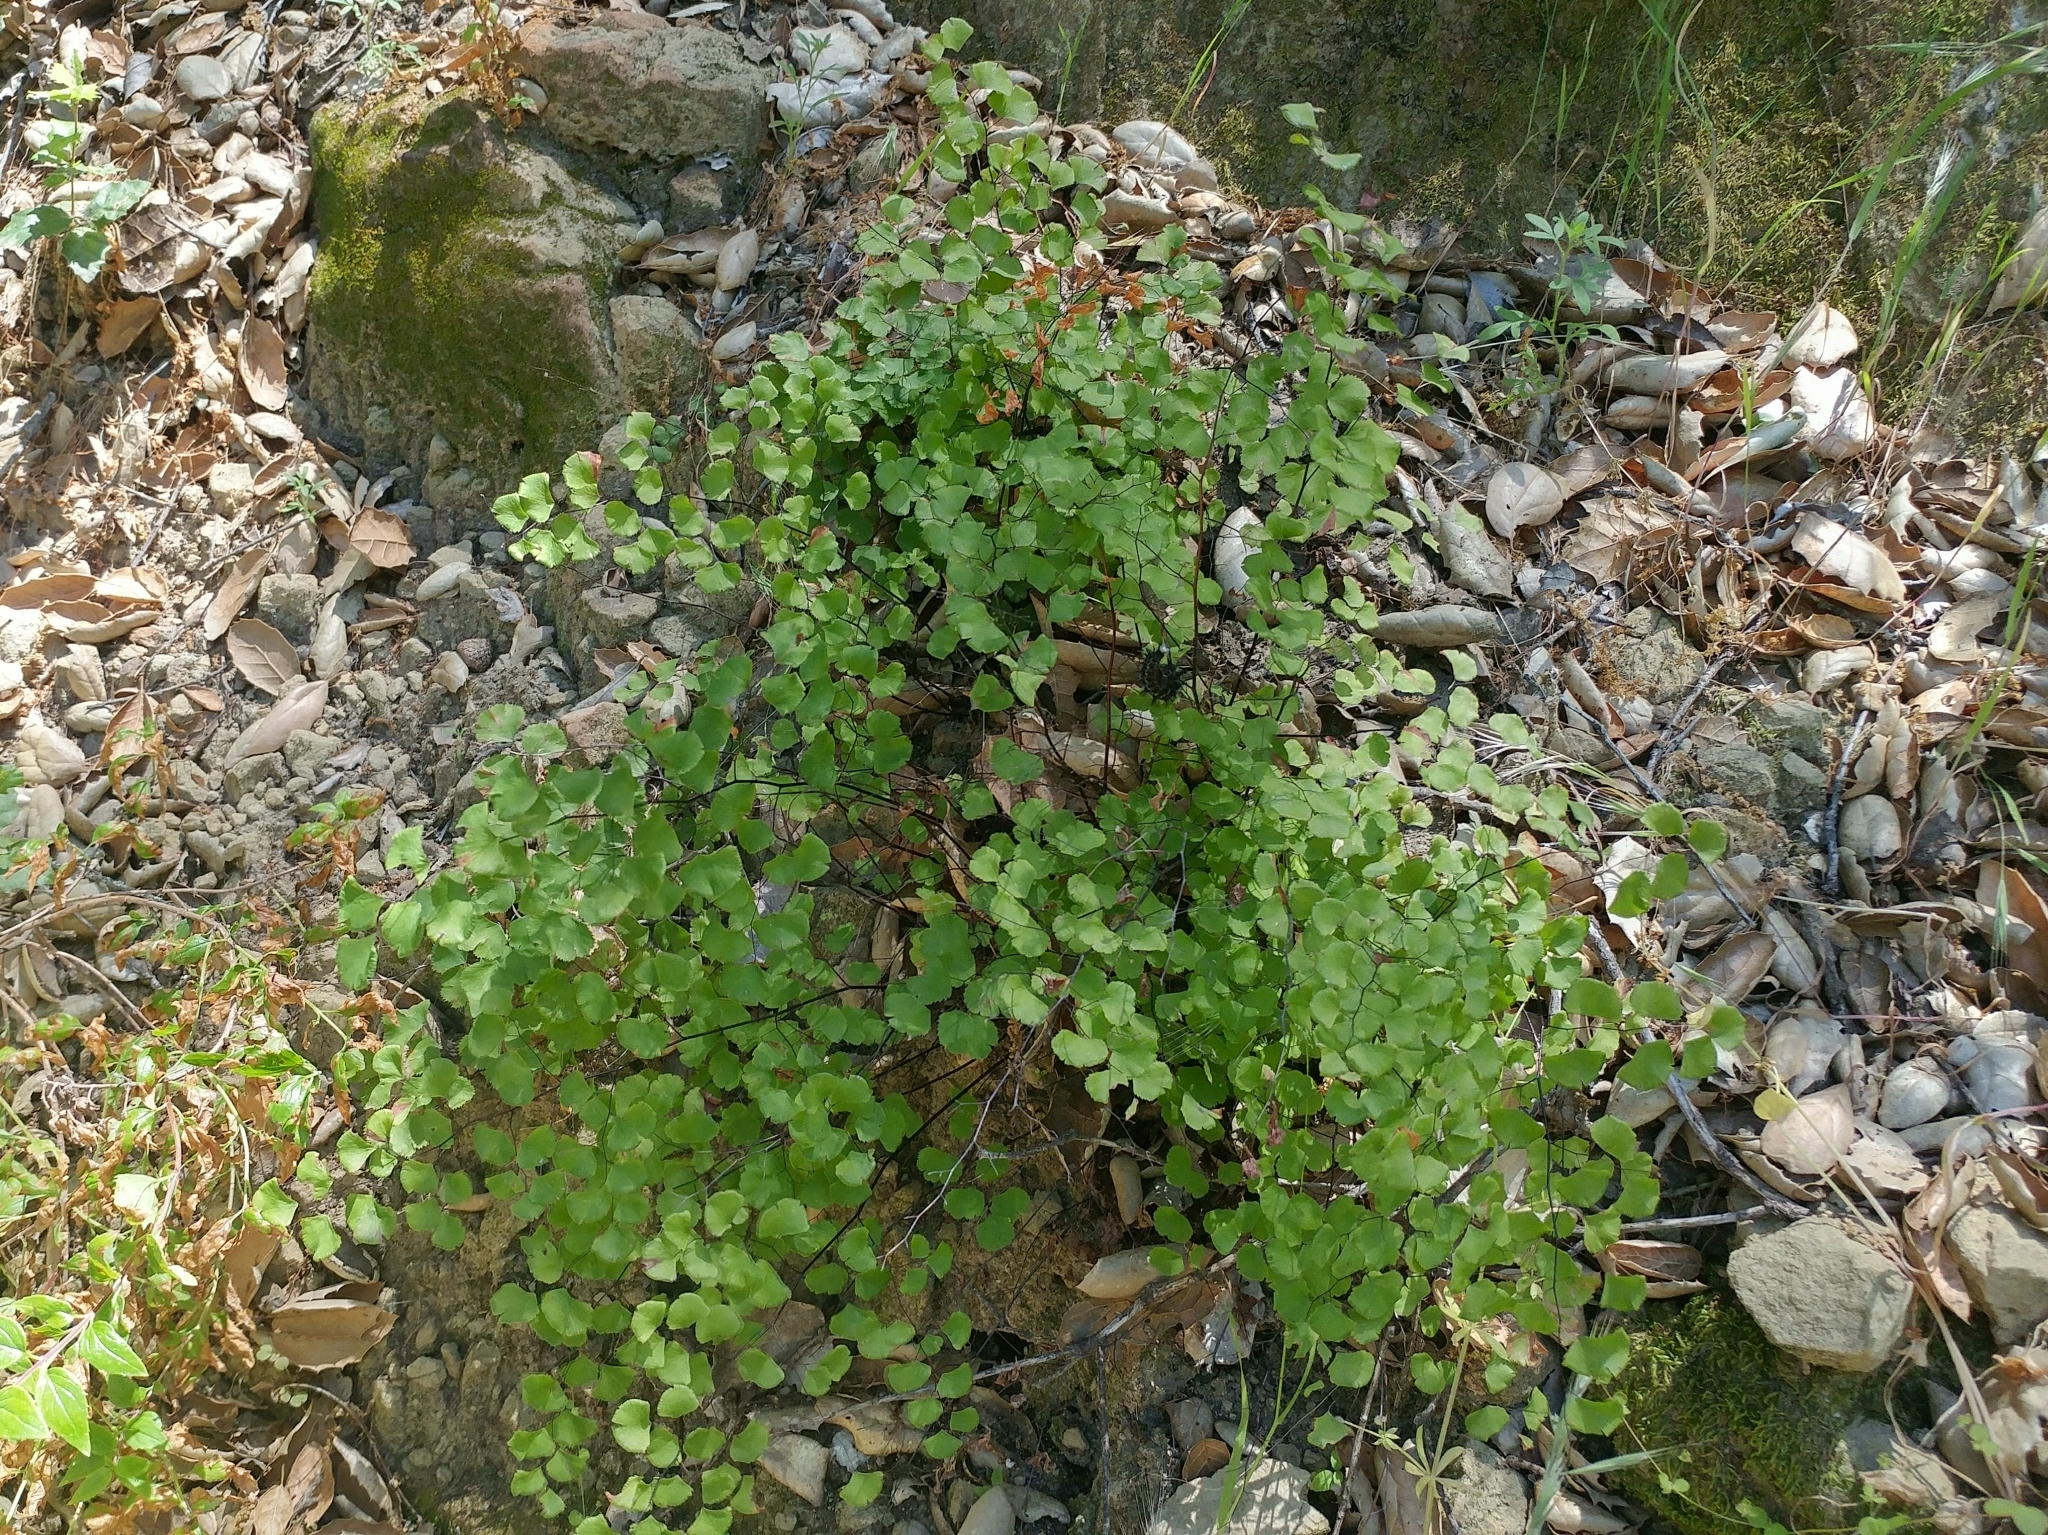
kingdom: Plantae
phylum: Tracheophyta
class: Polypodiopsida
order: Polypodiales
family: Pteridaceae
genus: Adiantum
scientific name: Adiantum jordanii
